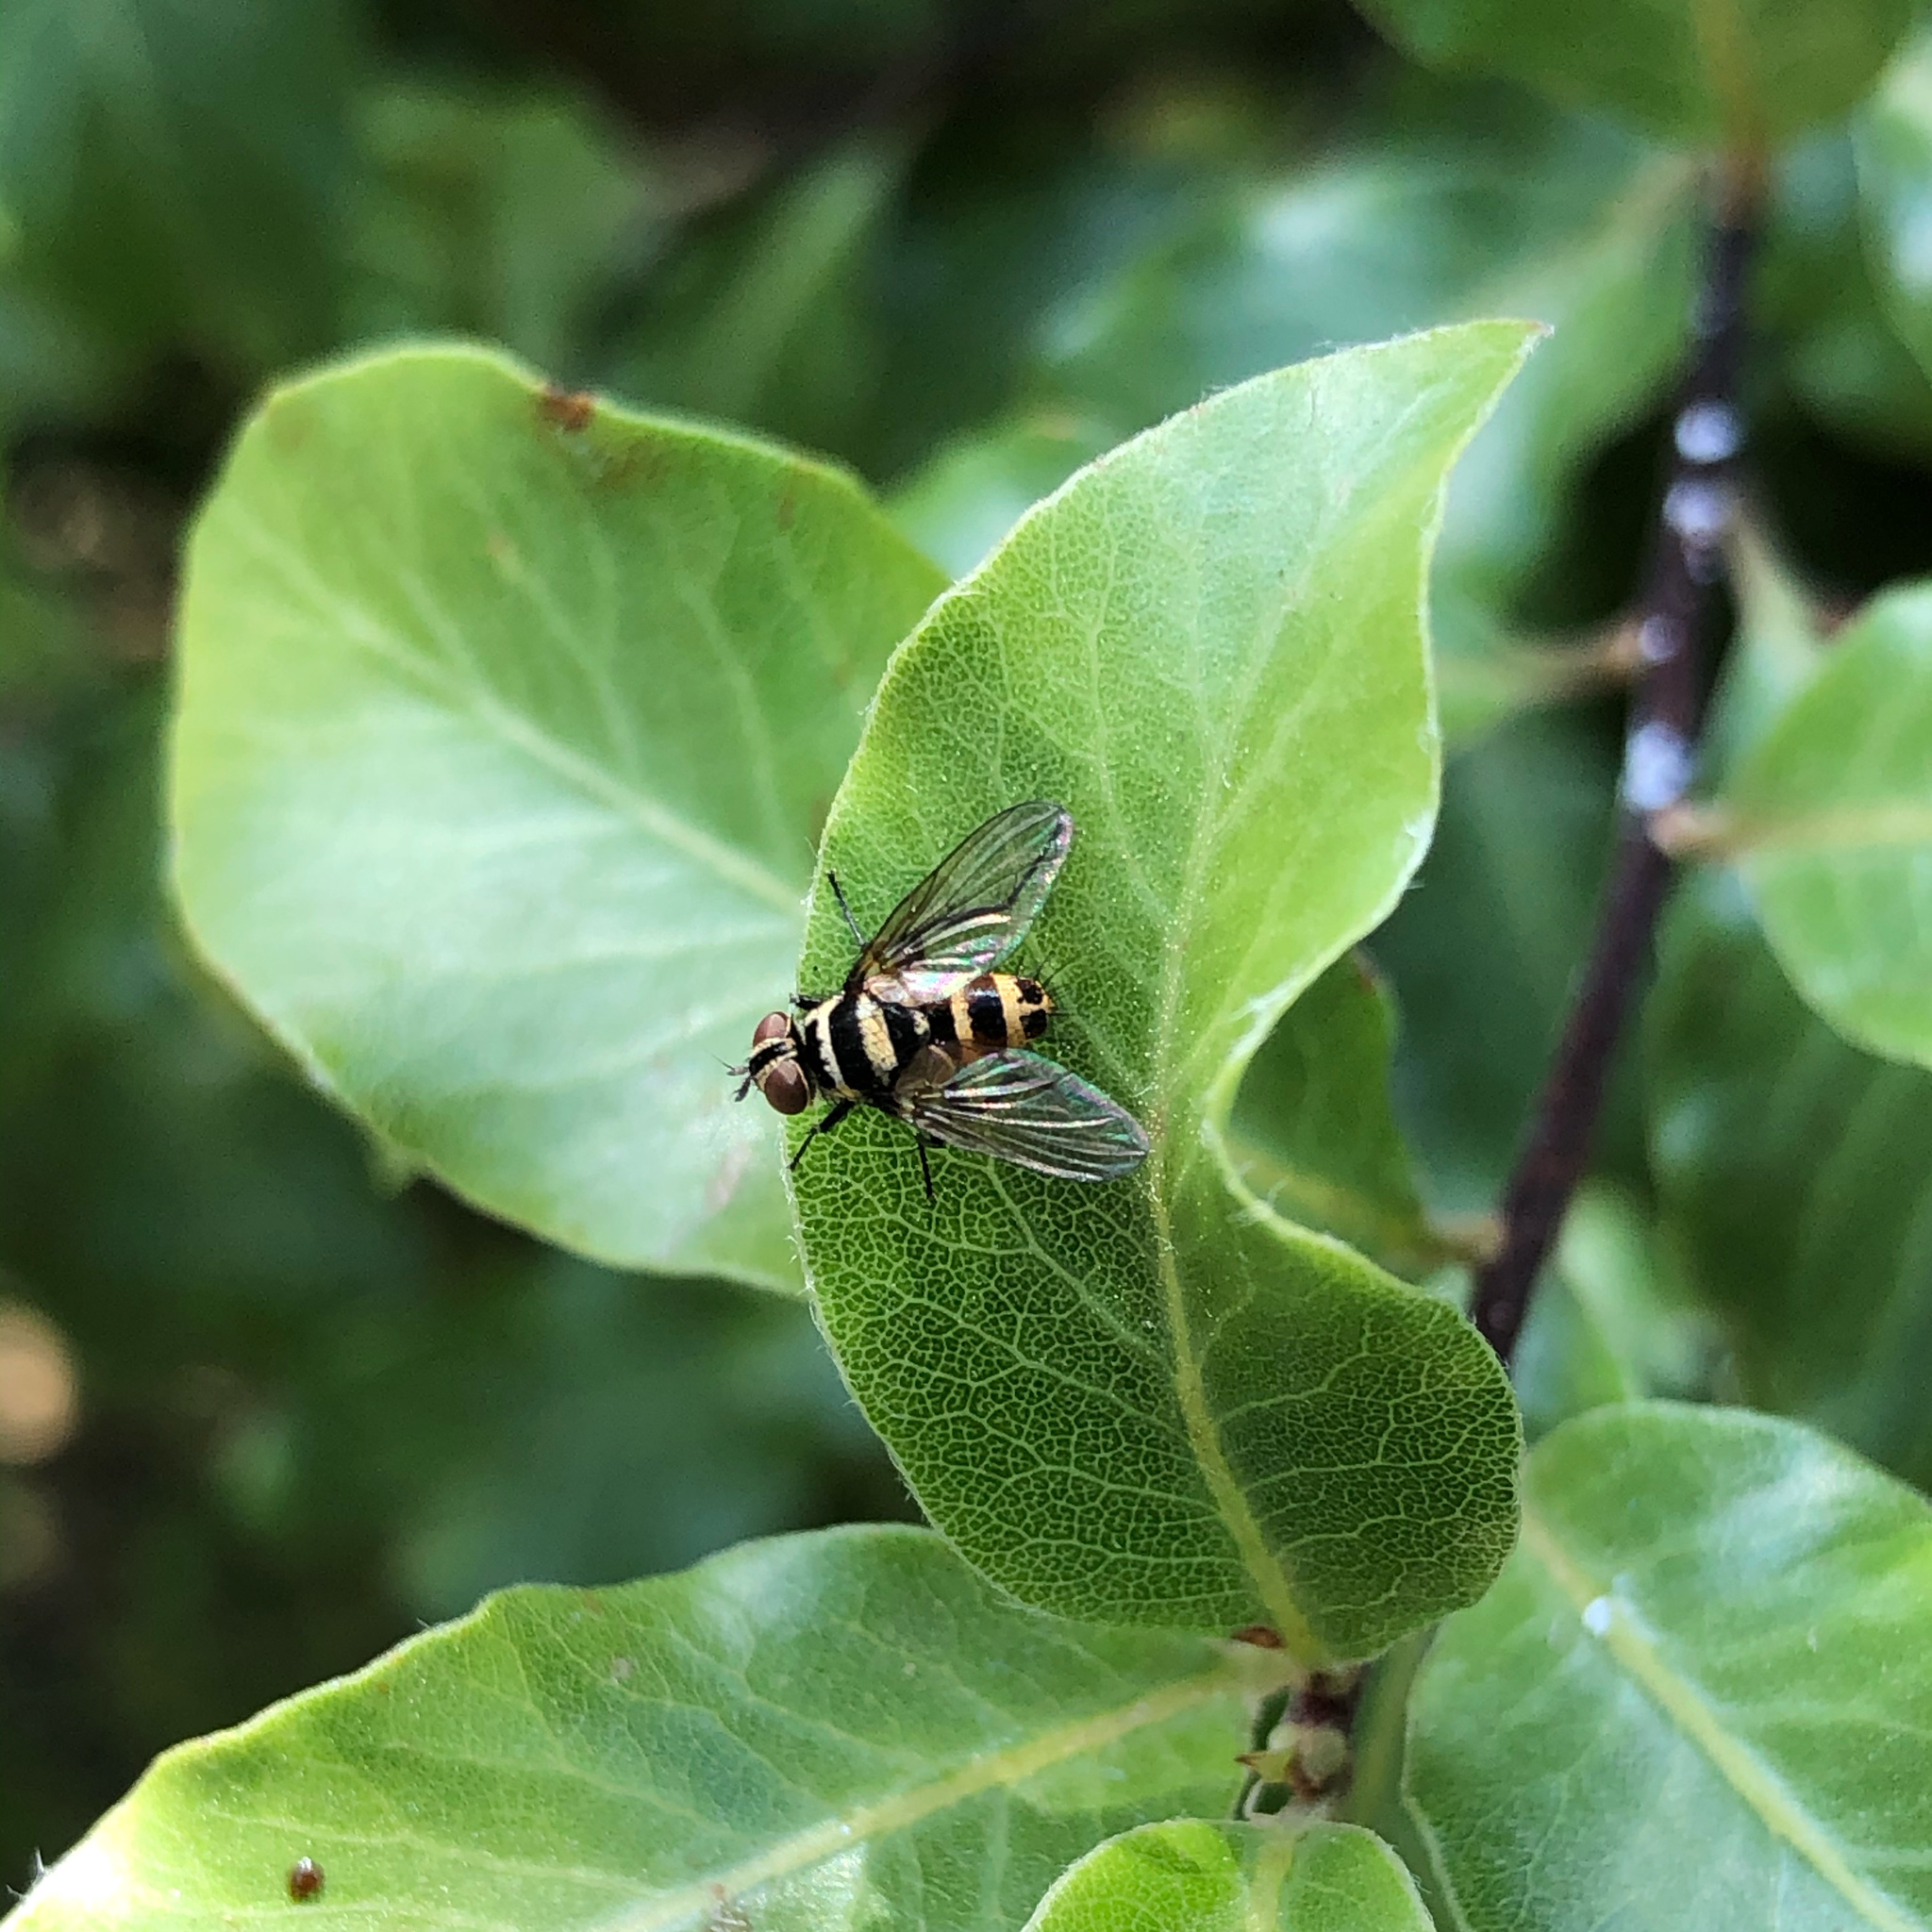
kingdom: Animalia
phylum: Arthropoda
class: Insecta
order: Diptera
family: Tachinidae
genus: Trigonospila
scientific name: Trigonospila brevifacies
